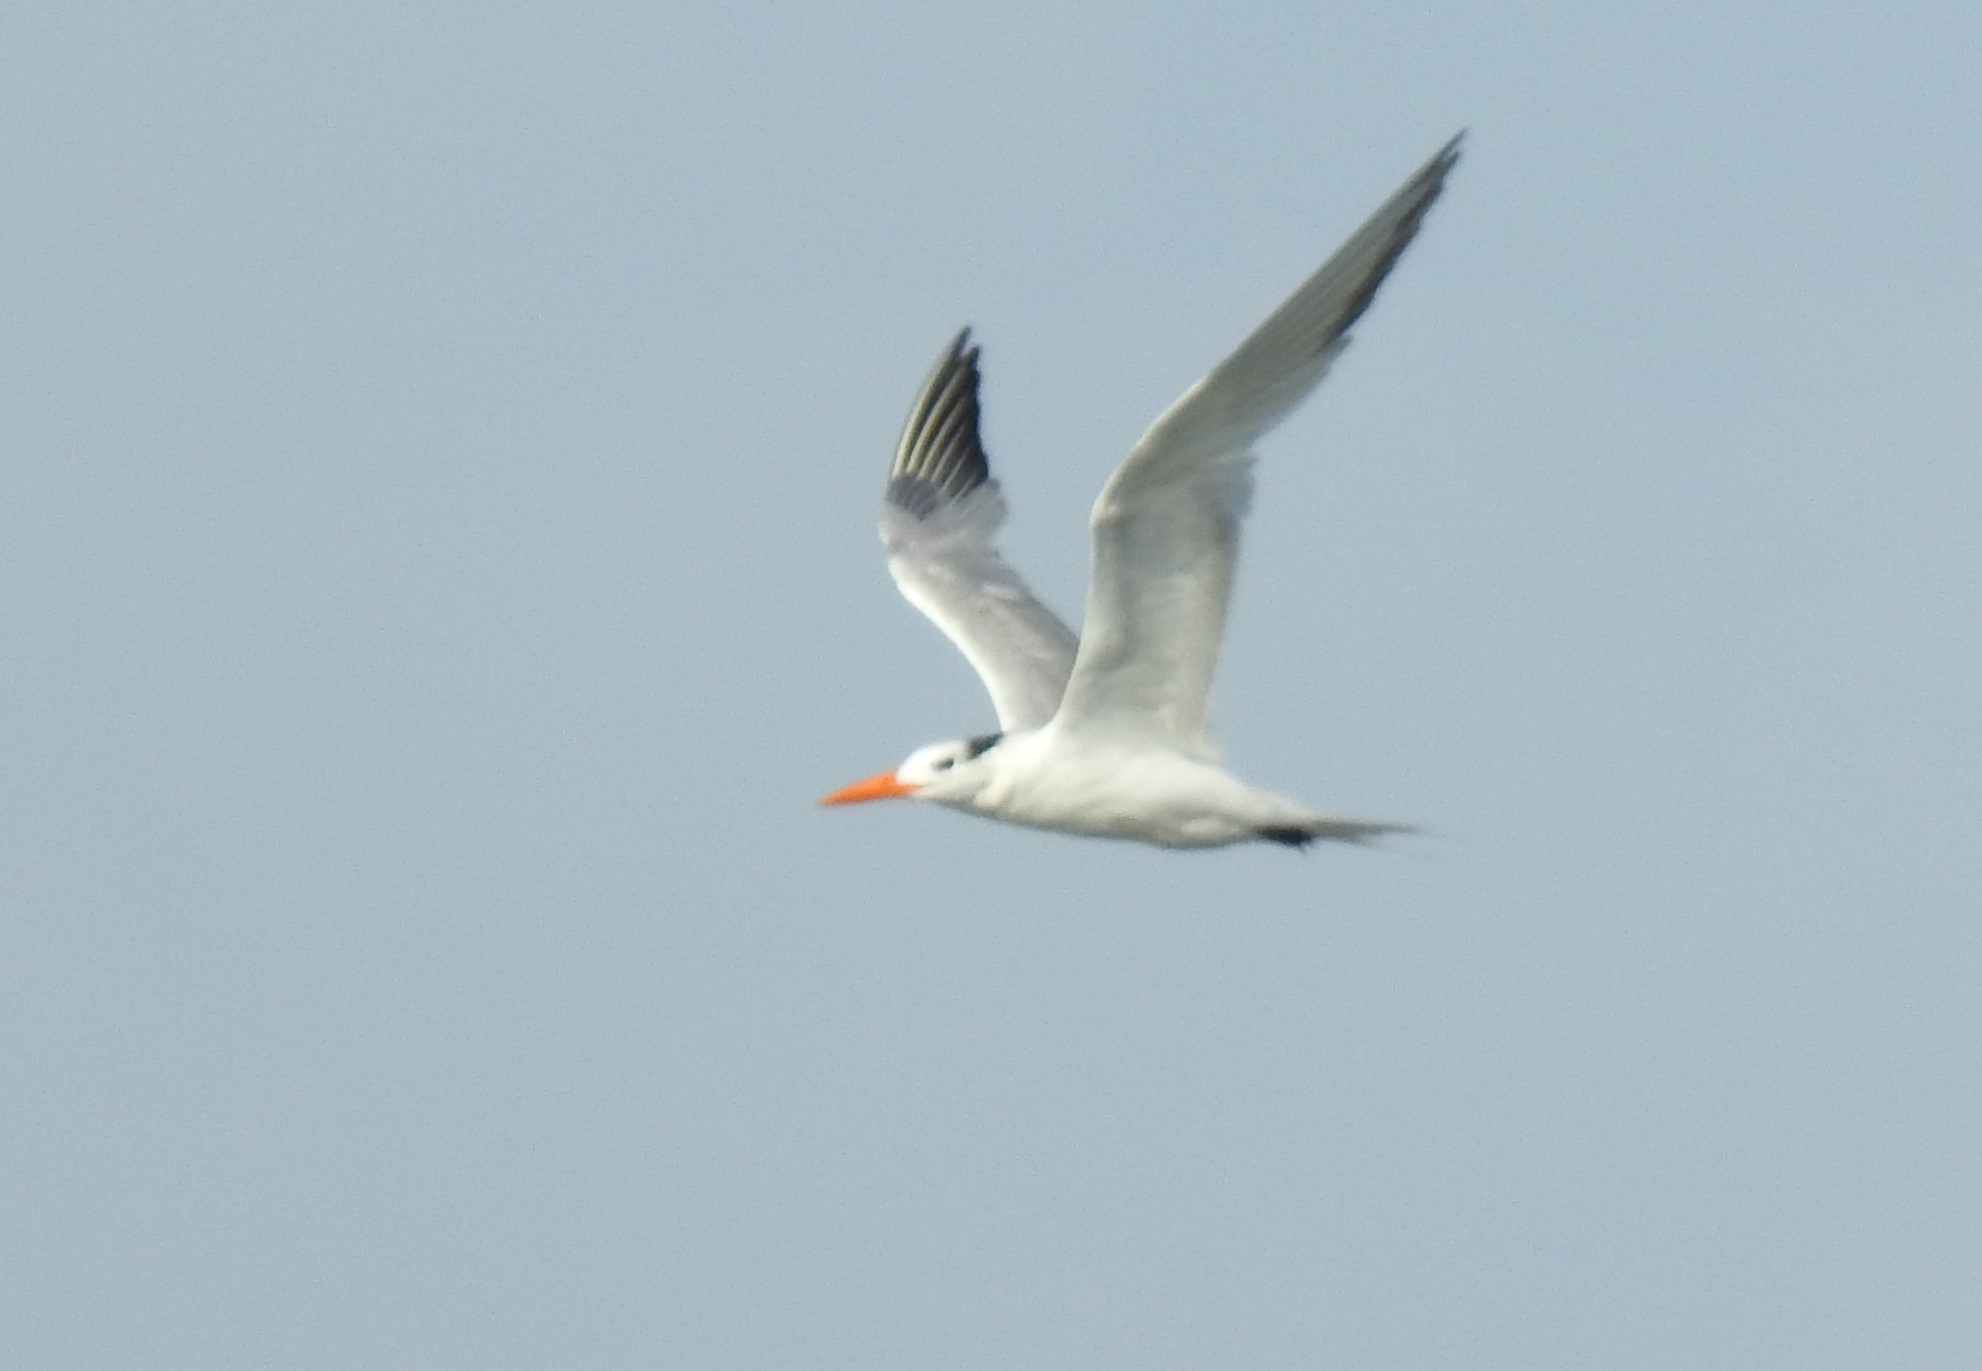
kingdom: Animalia
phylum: Chordata
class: Aves
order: Charadriiformes
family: Laridae
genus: Thalasseus
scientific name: Thalasseus maximus
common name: Royal tern
